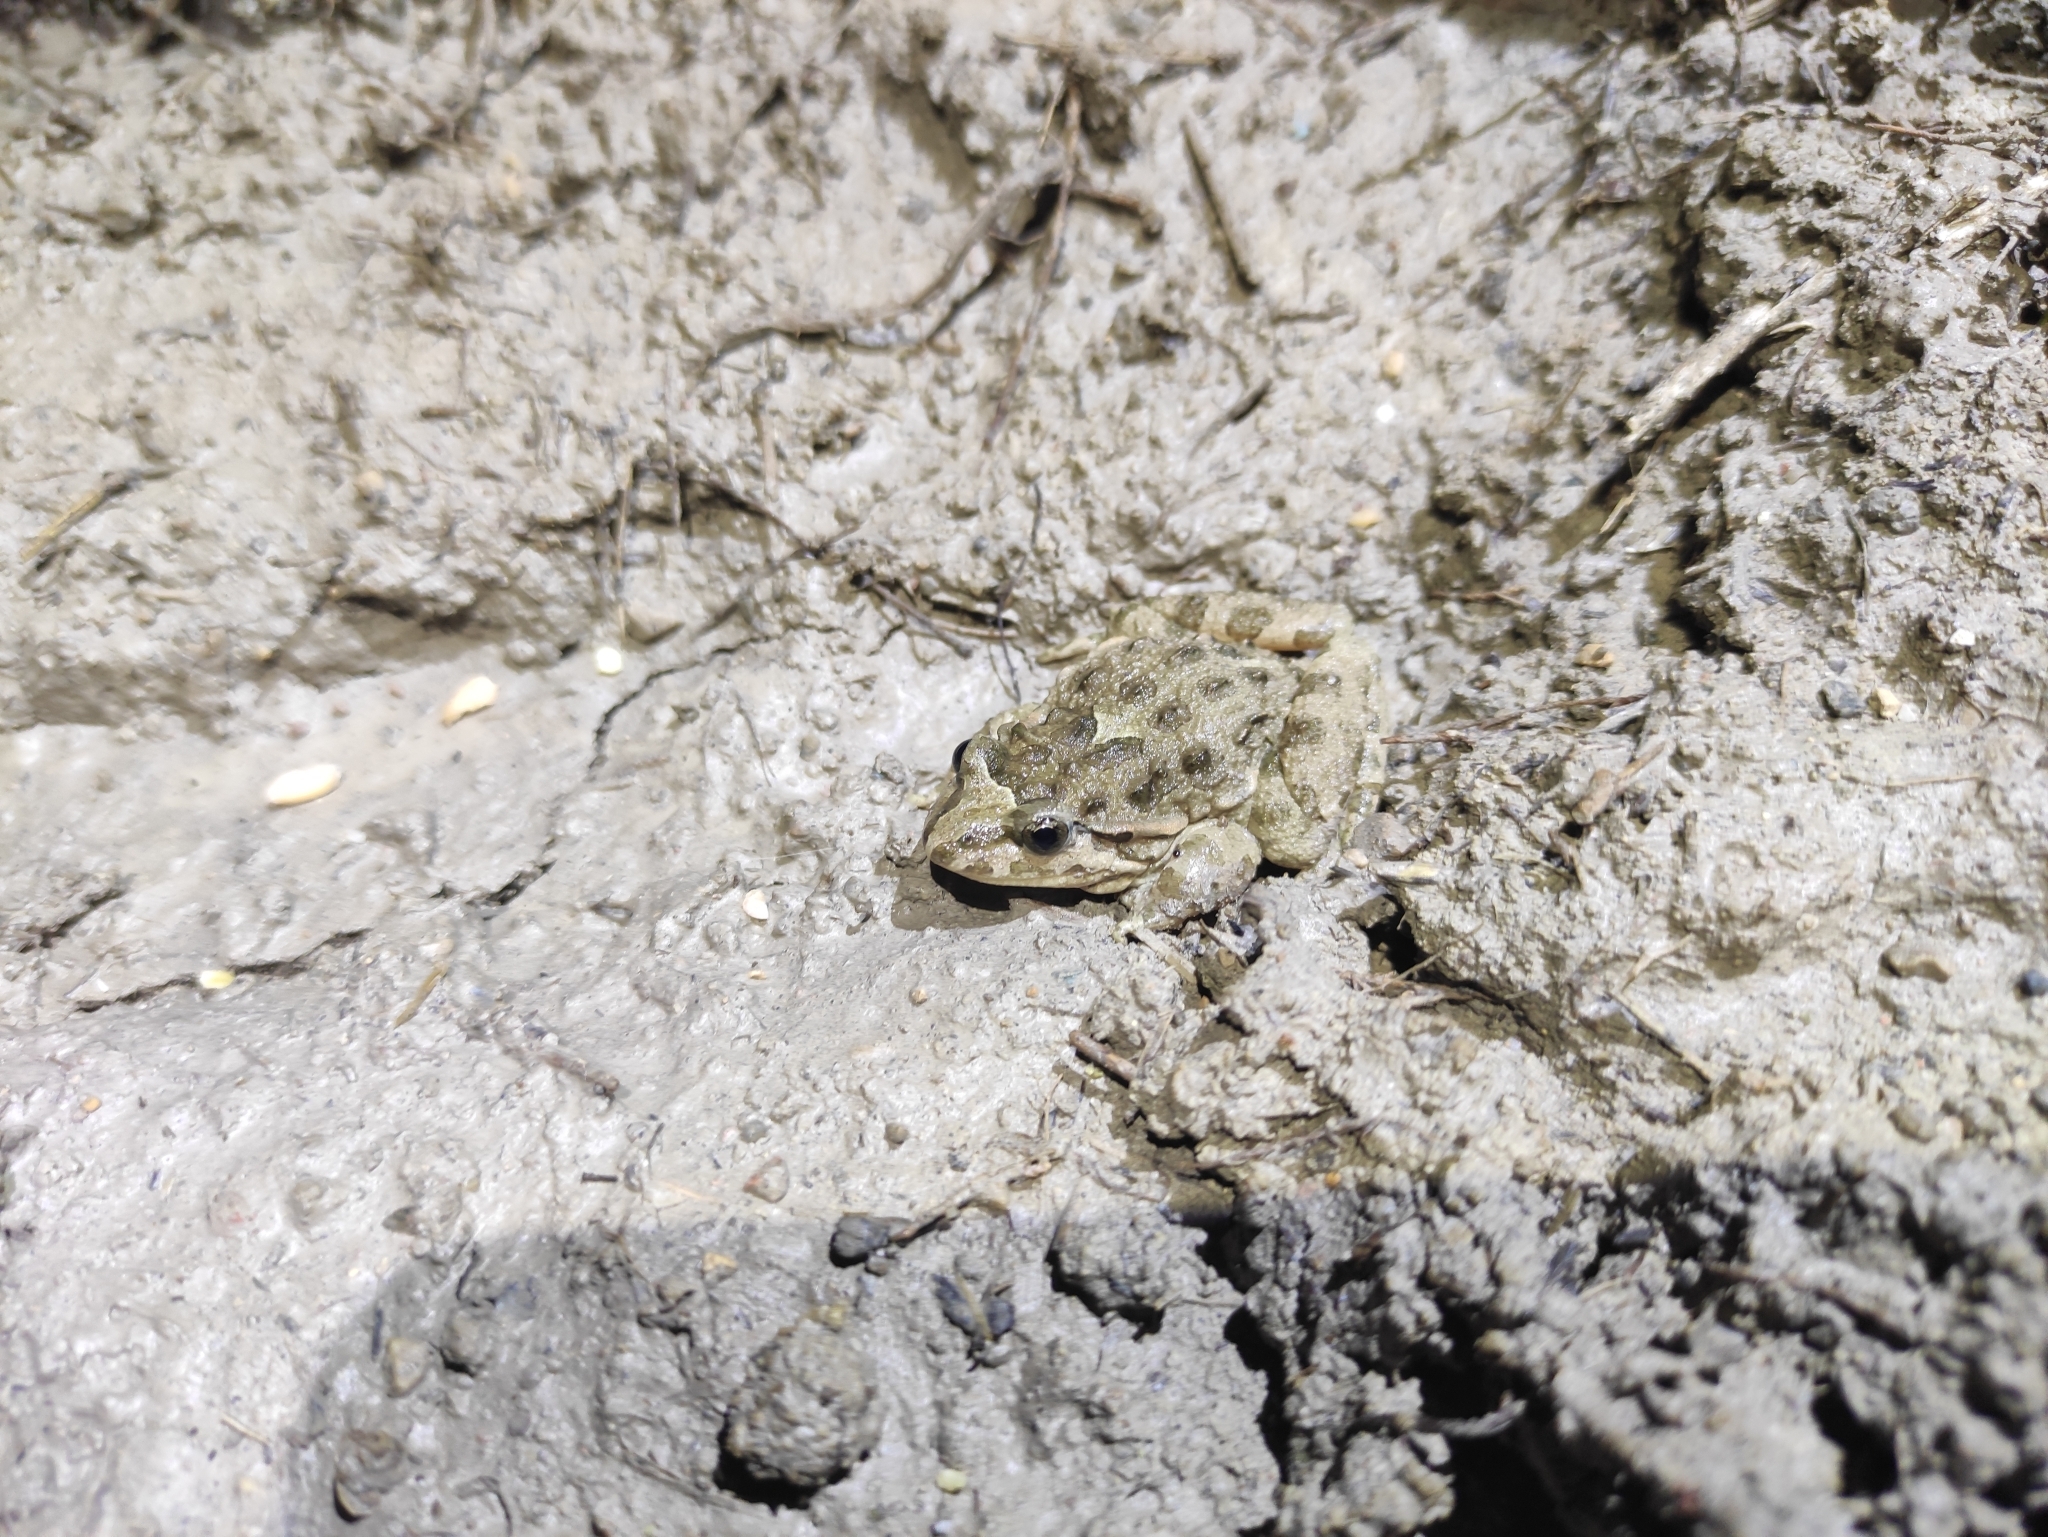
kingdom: Animalia
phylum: Chordata
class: Amphibia
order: Anura
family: Alytidae
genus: Discoglossus
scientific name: Discoglossus pictus
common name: Painted frog
